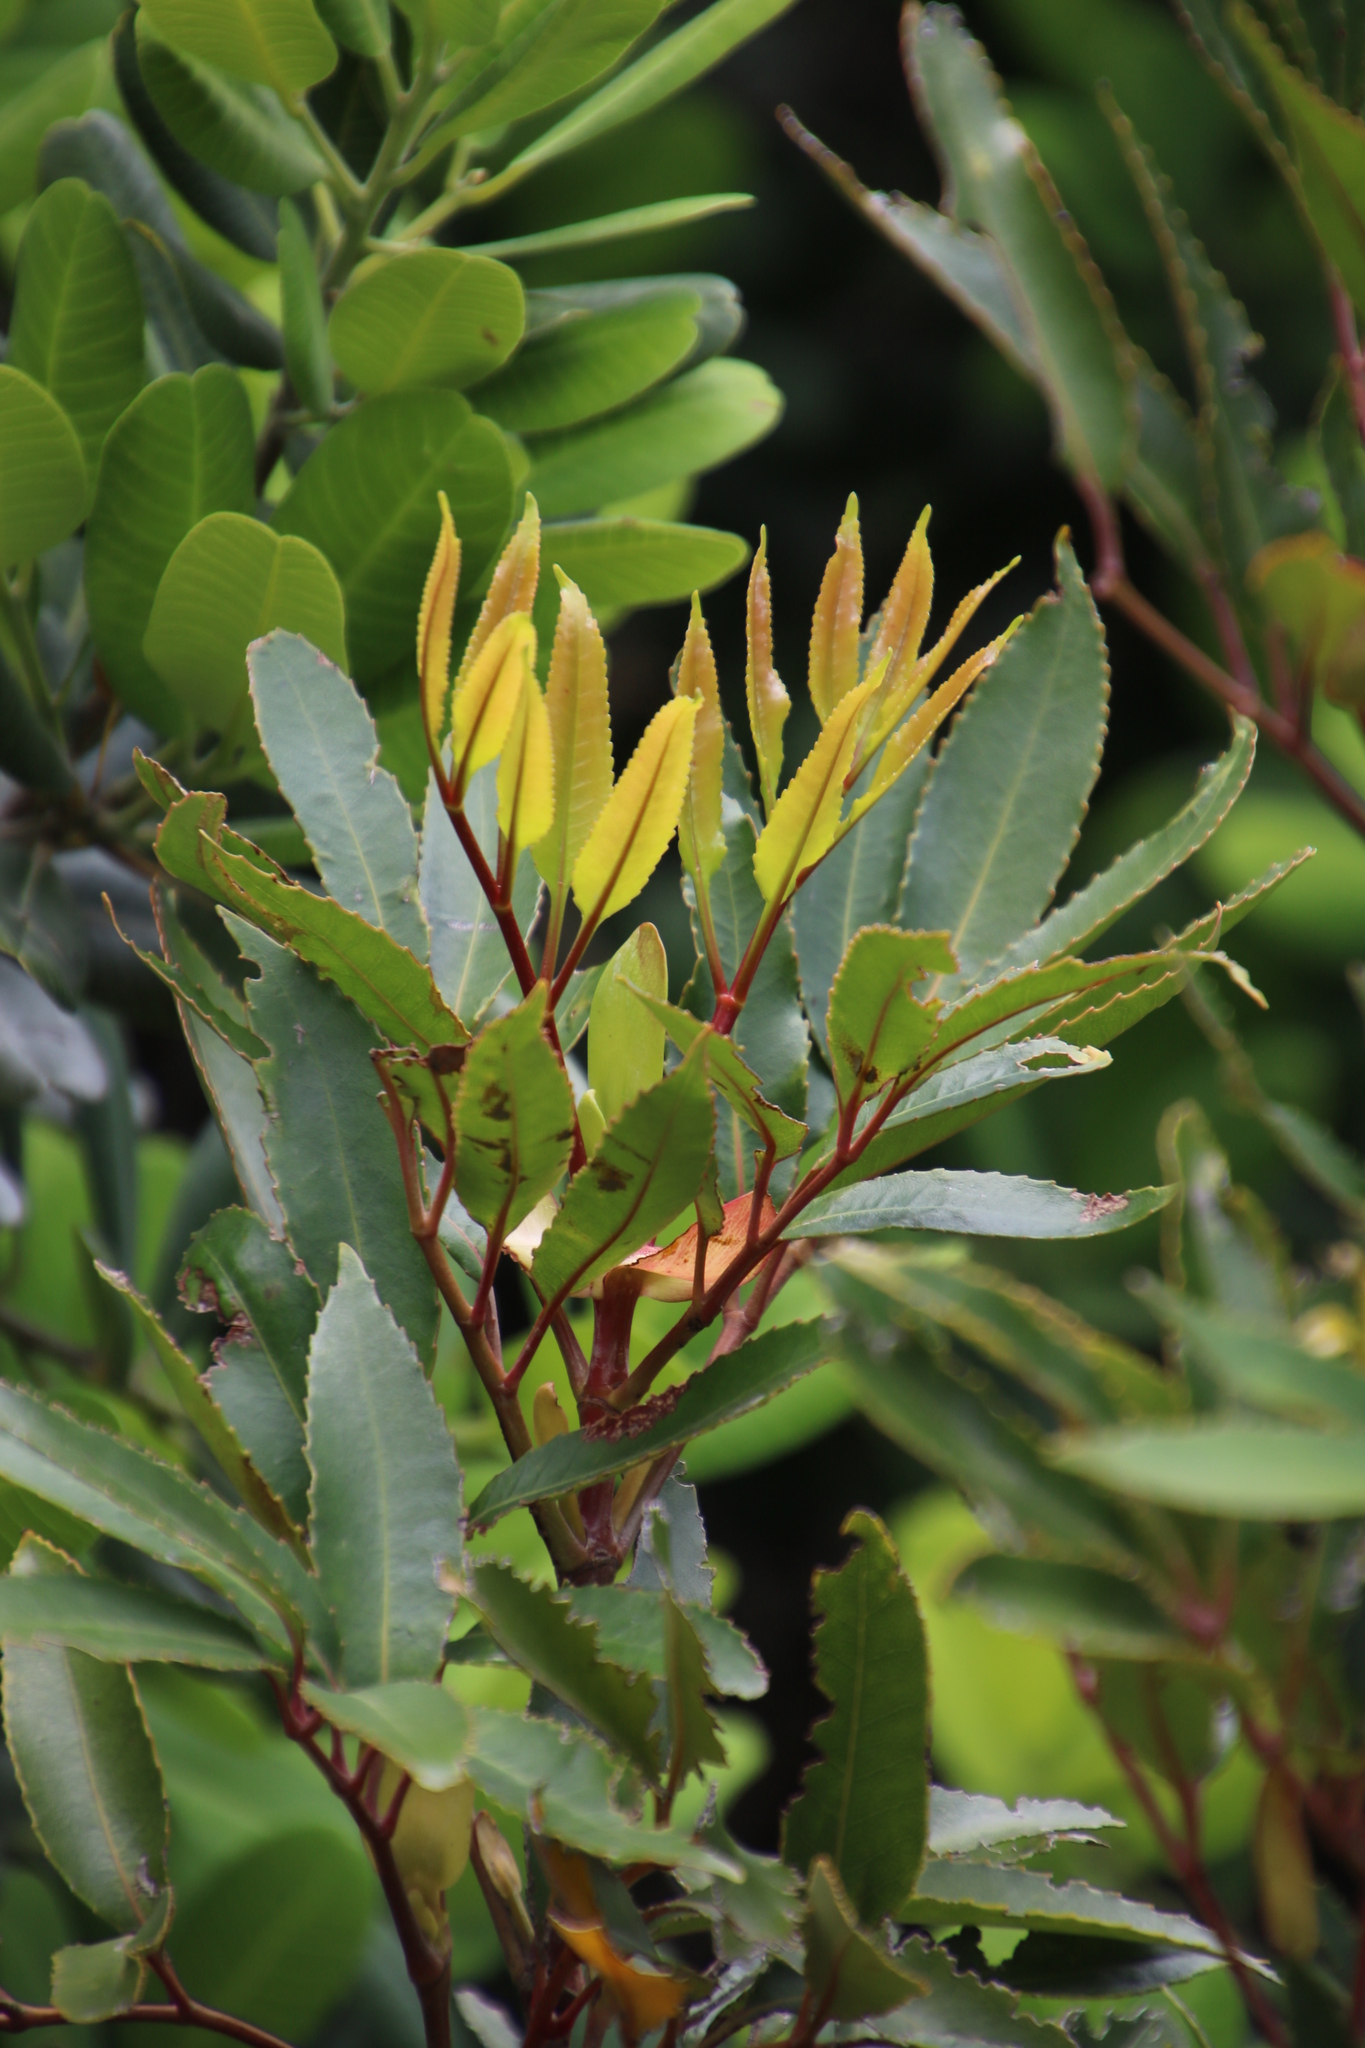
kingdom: Plantae
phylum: Tracheophyta
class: Magnoliopsida
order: Oxalidales
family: Cunoniaceae
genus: Cunonia
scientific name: Cunonia capensis
